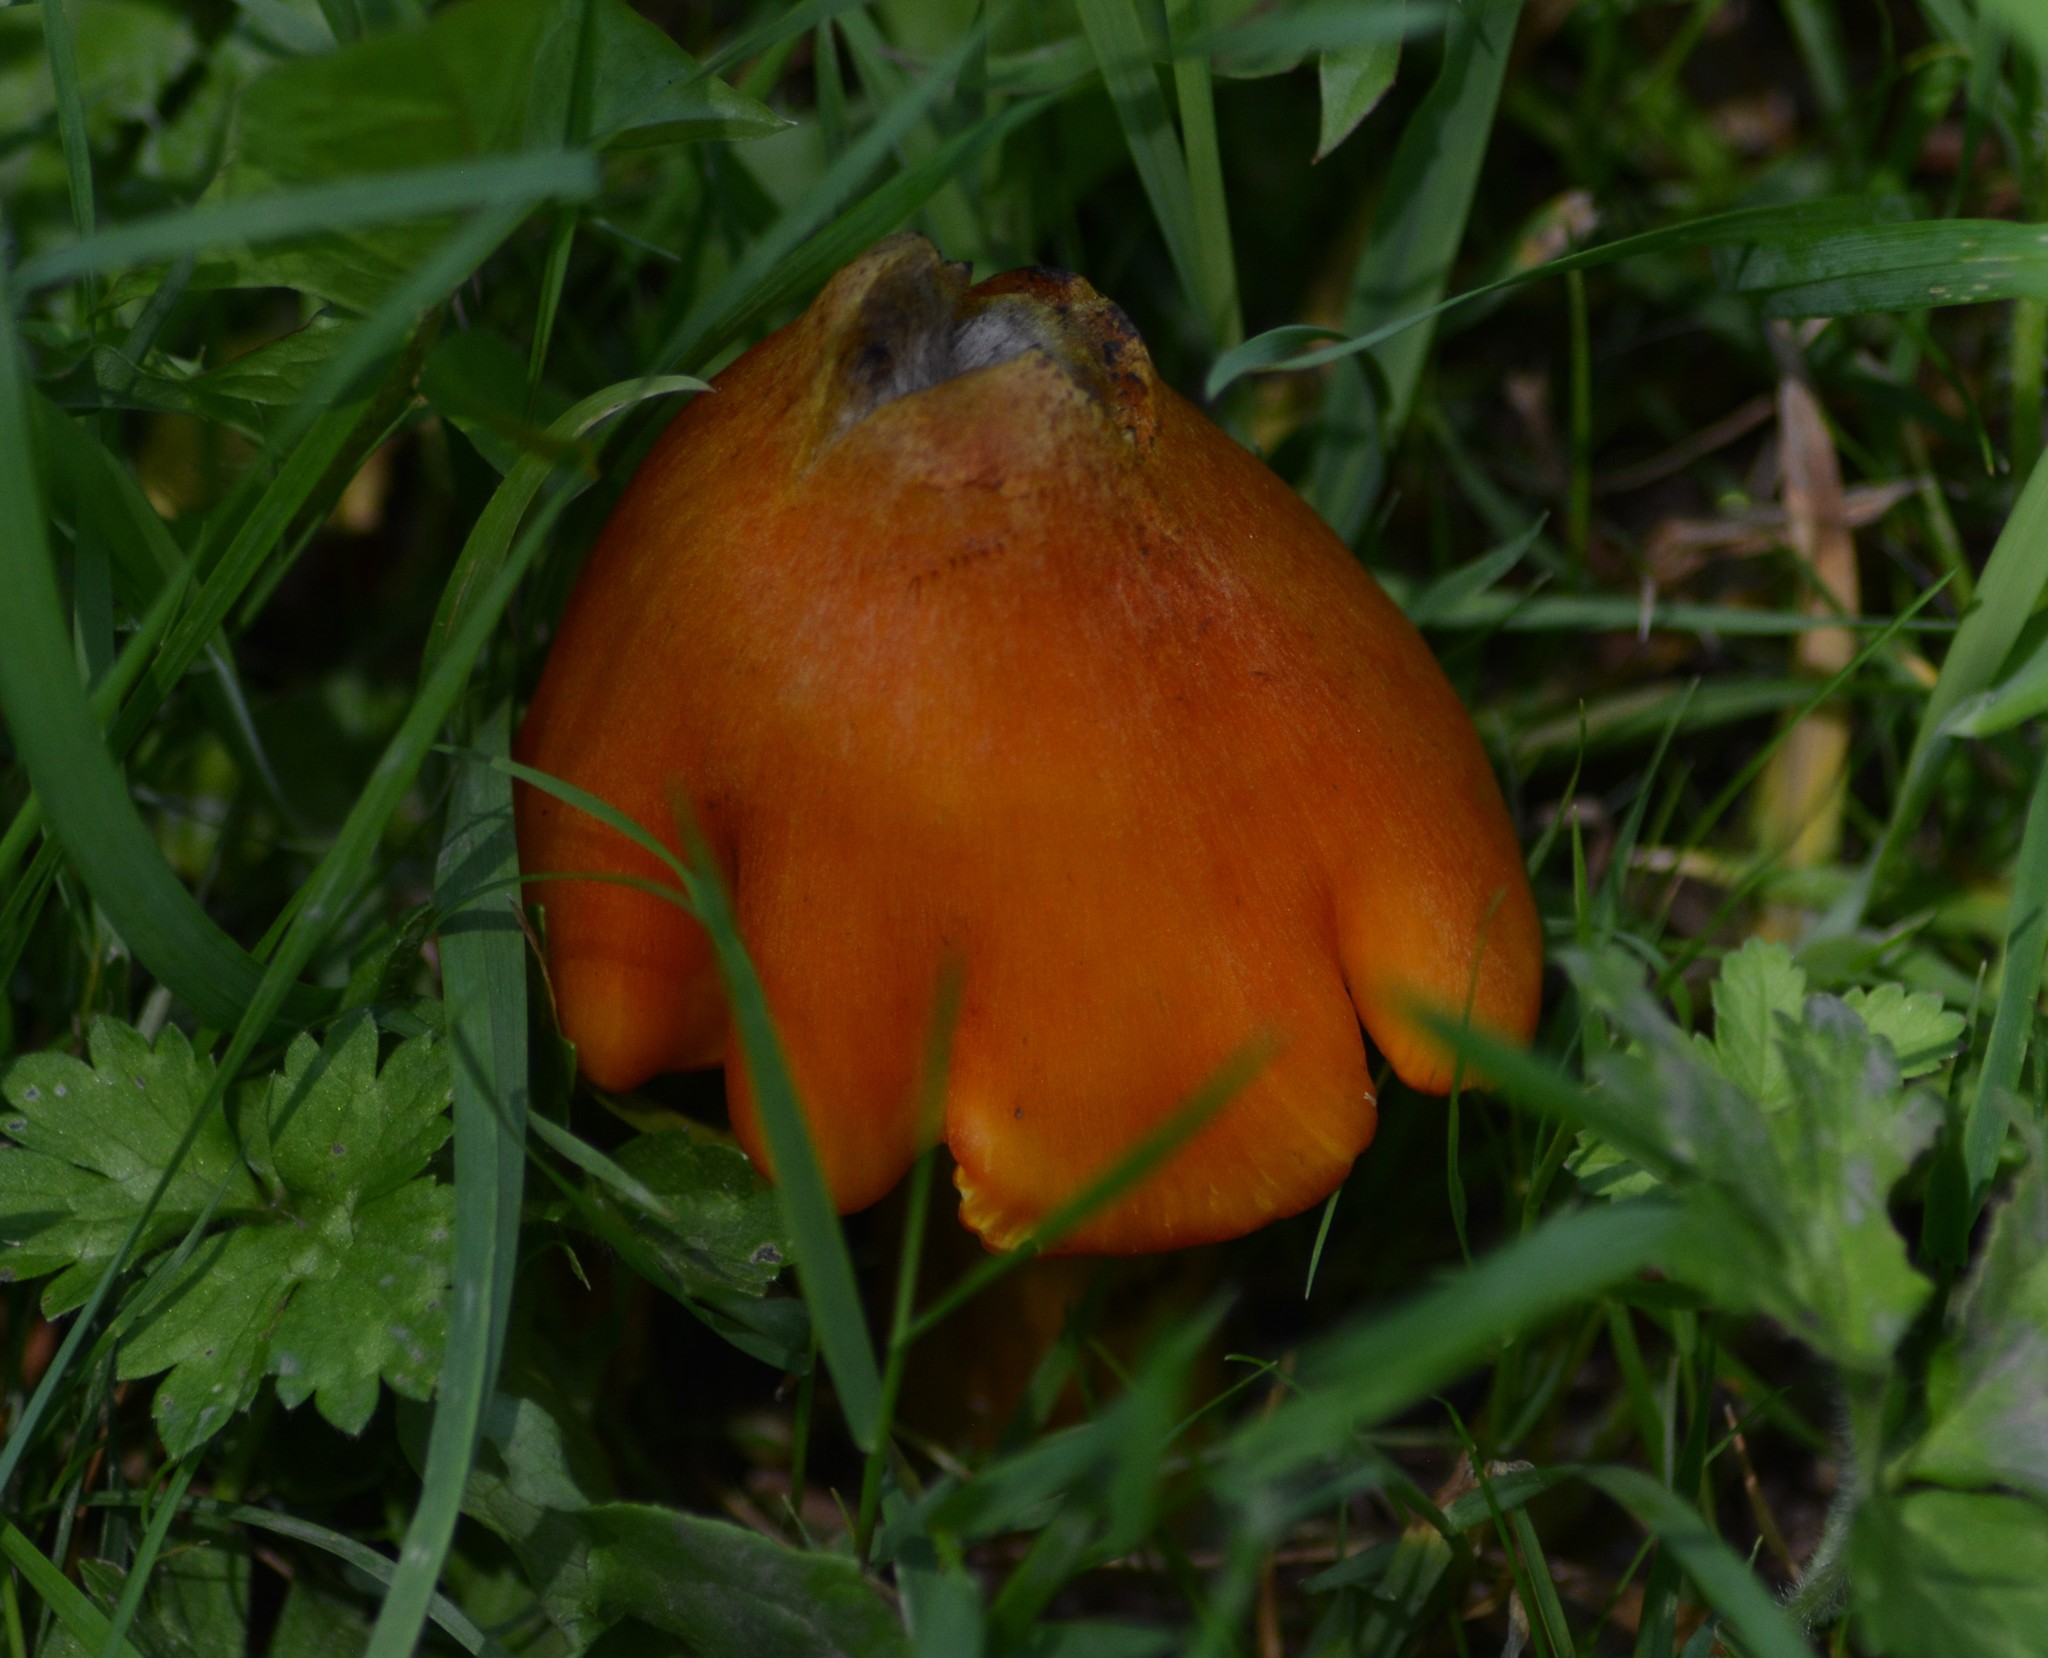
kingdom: Fungi
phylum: Basidiomycota
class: Agaricomycetes
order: Agaricales
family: Hygrophoraceae
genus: Hygrocybe
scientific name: Hygrocybe conica
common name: Blackening wax-cap
